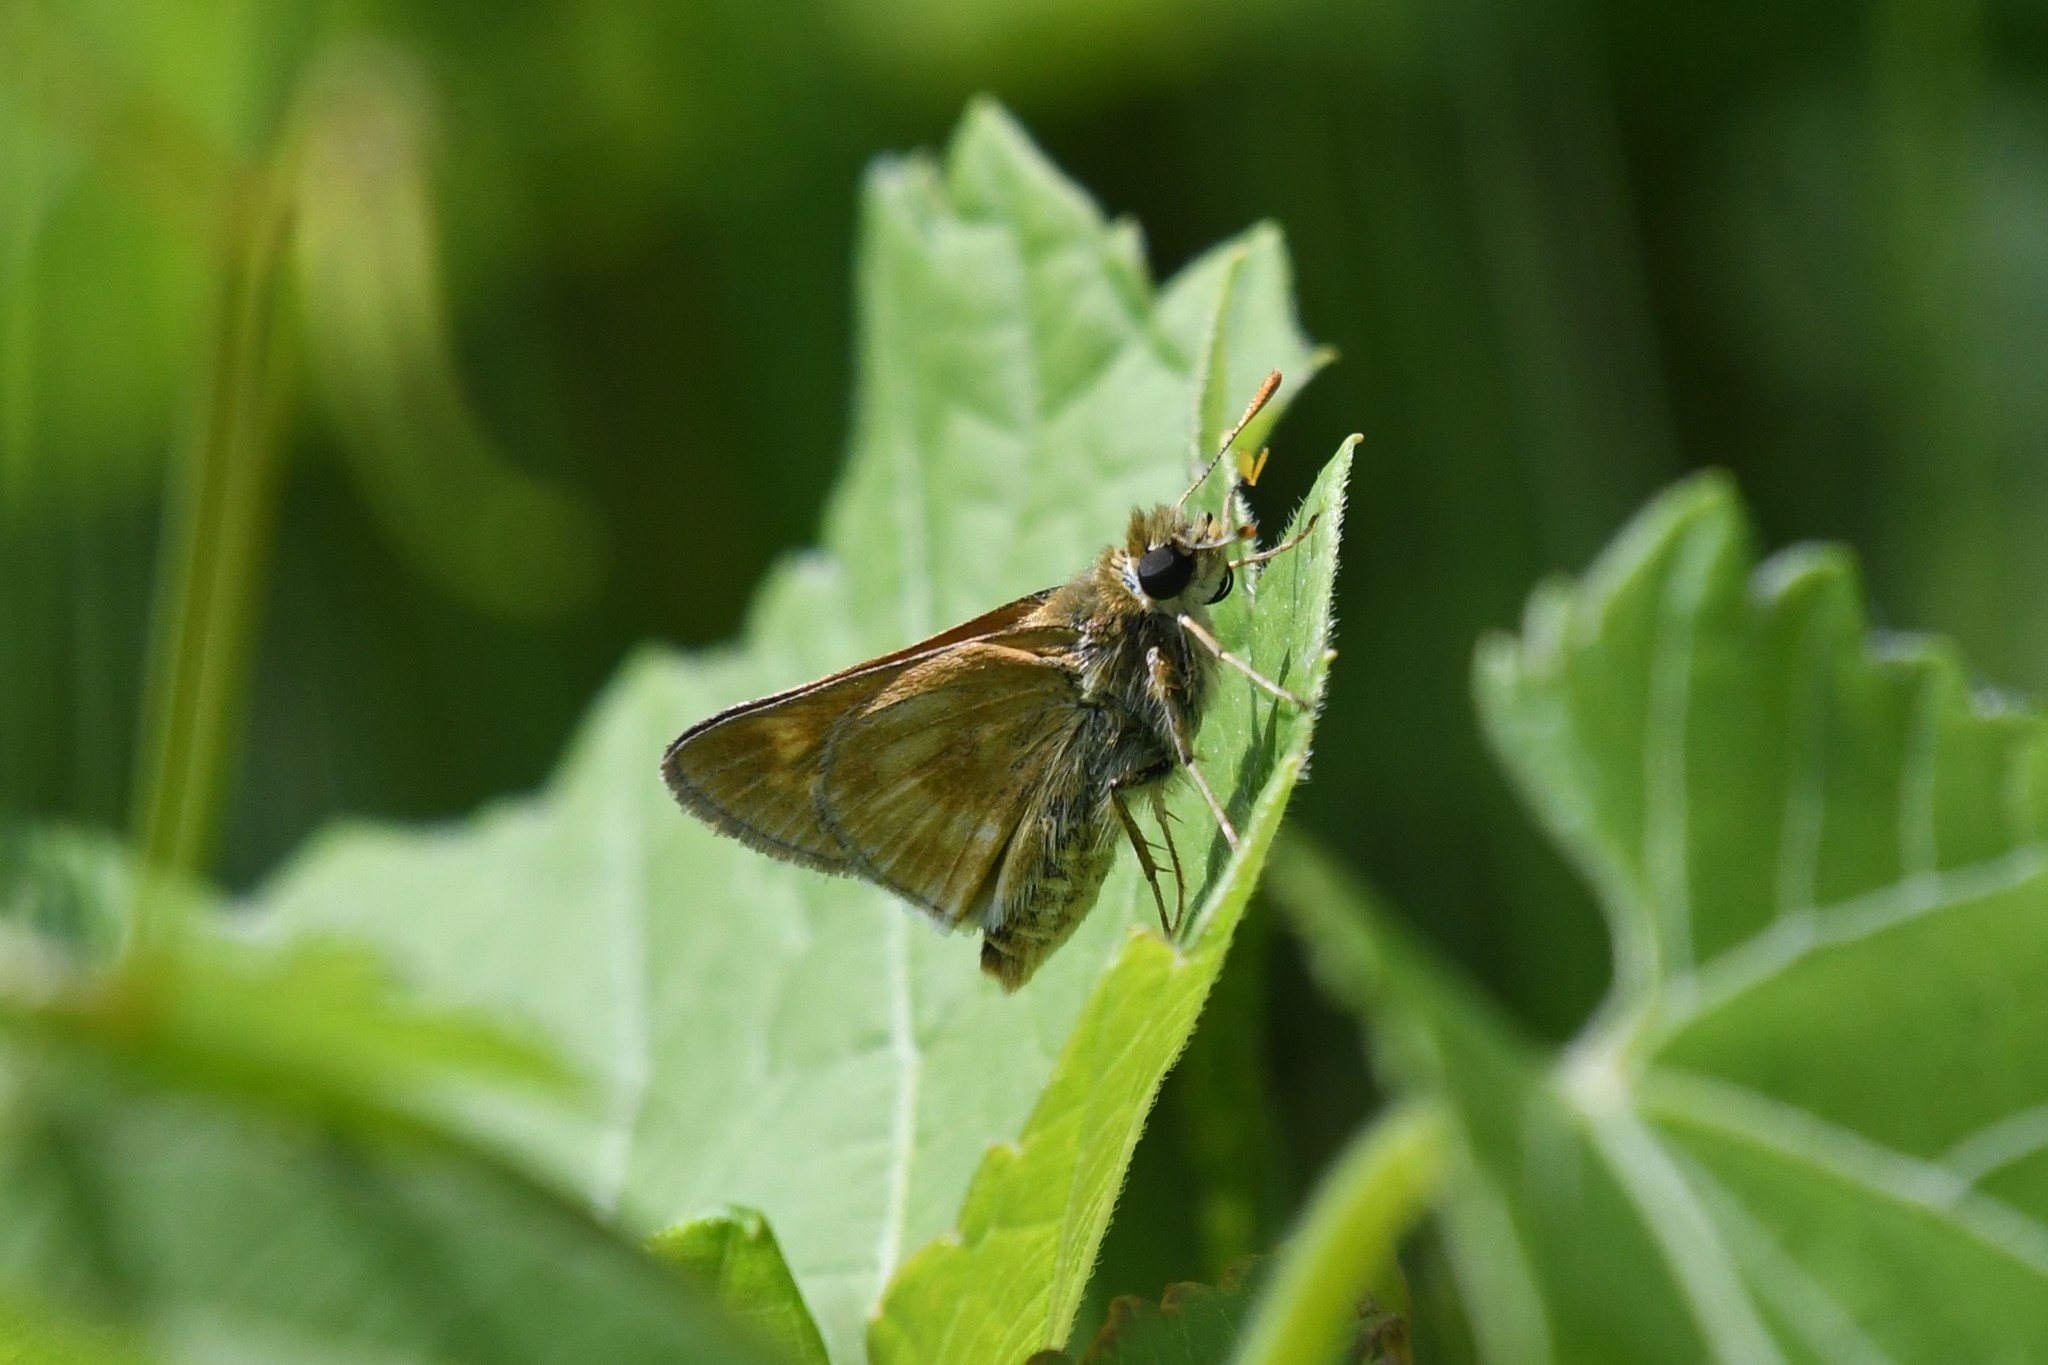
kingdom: Animalia
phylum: Arthropoda
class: Insecta
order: Lepidoptera
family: Hesperiidae
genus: Polites
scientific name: Polites mystic
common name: Long dash
